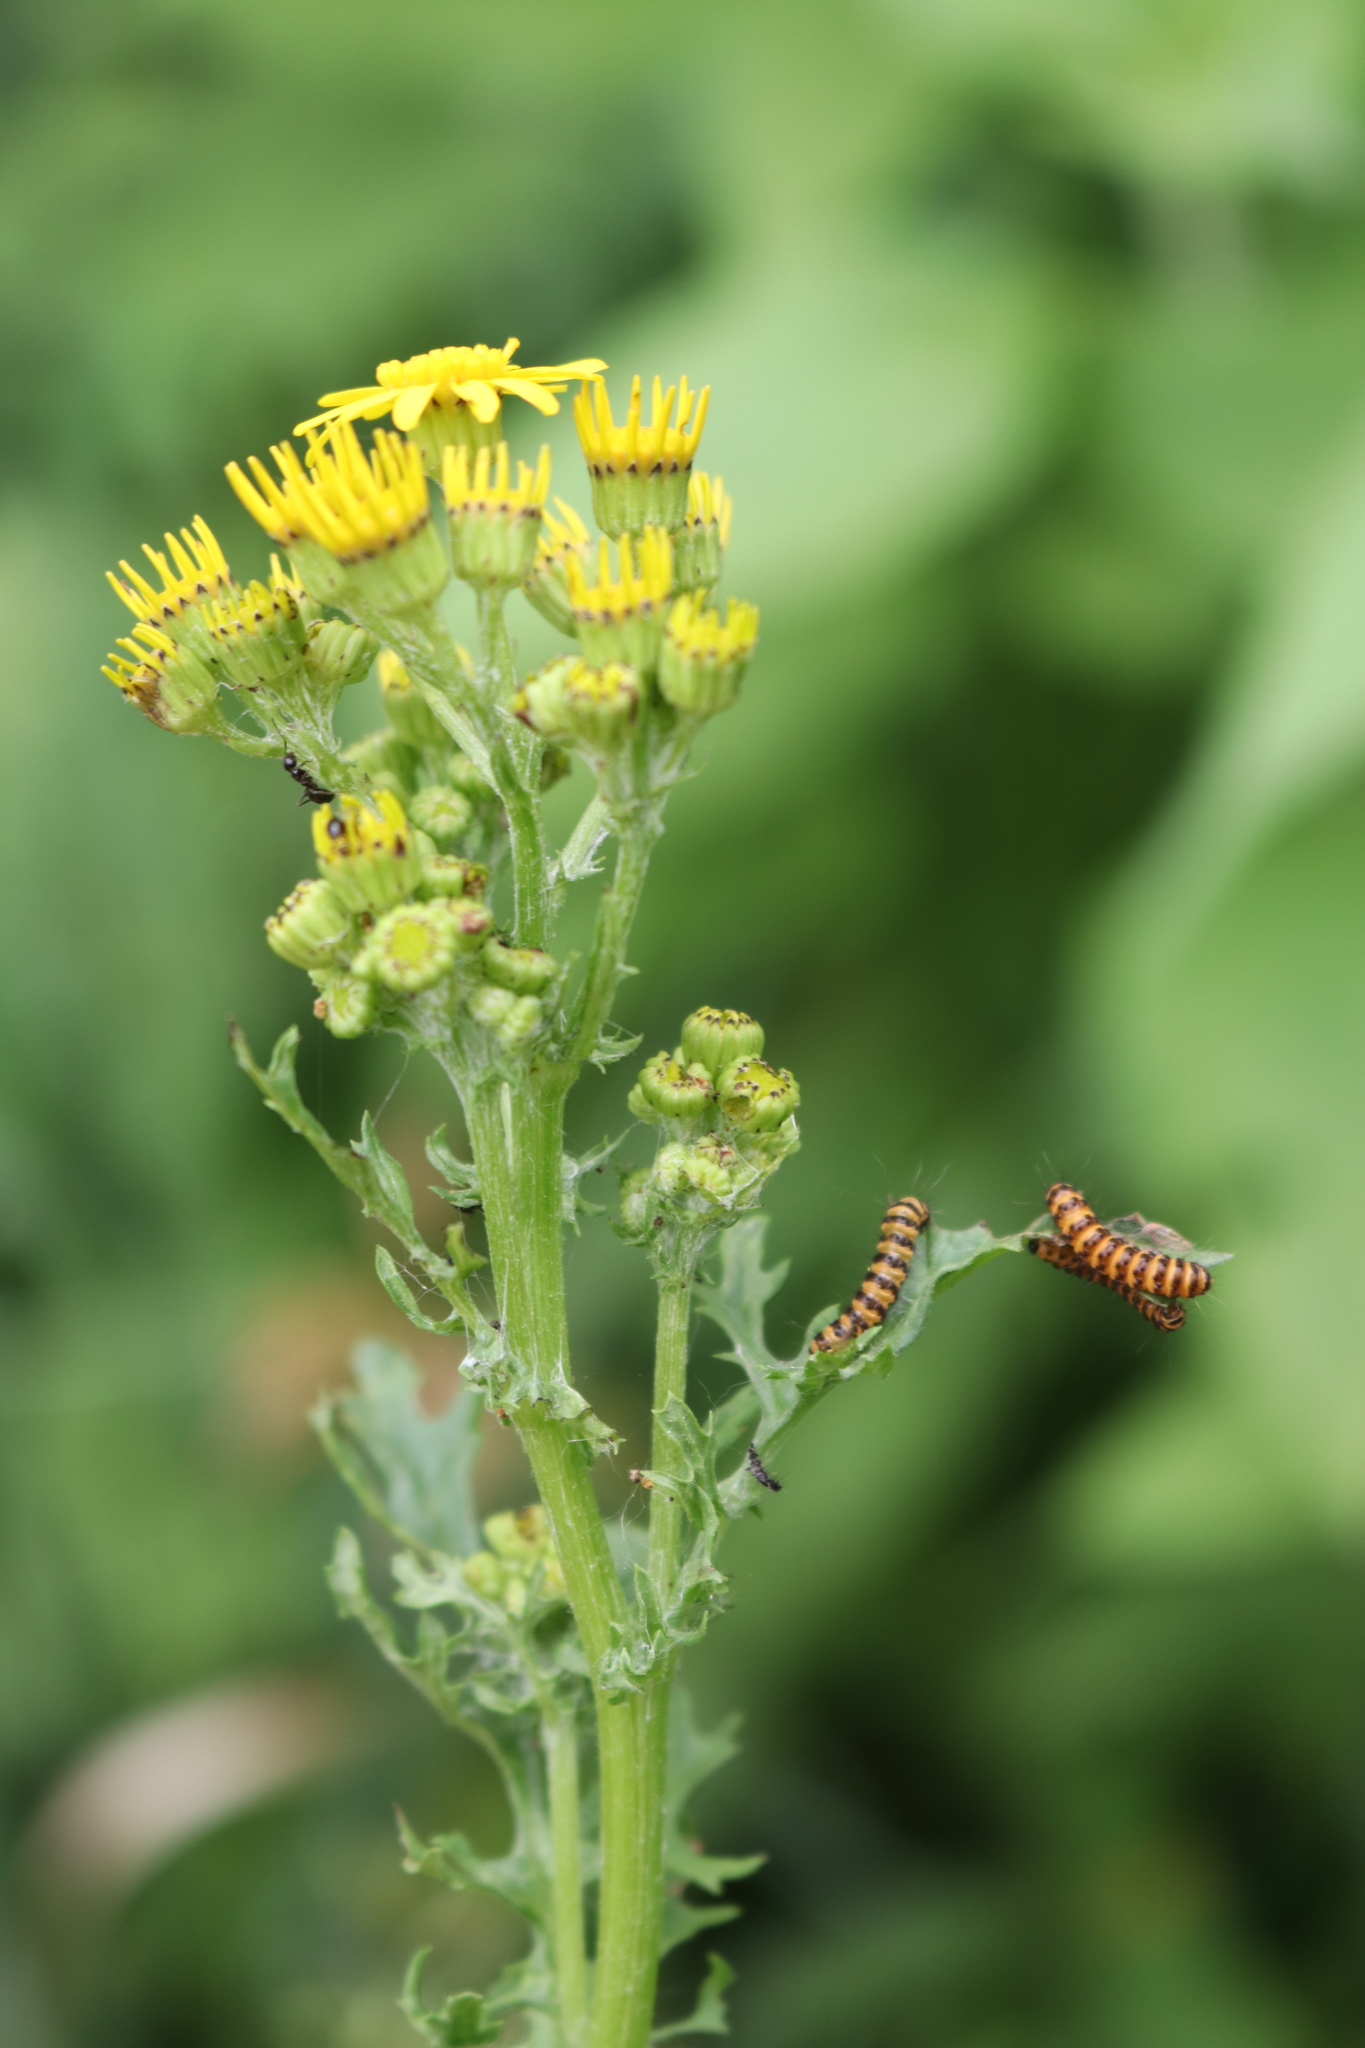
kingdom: Plantae
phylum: Tracheophyta
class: Magnoliopsida
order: Asterales
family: Asteraceae
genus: Jacobaea
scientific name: Jacobaea vulgaris
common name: Stinking willie
